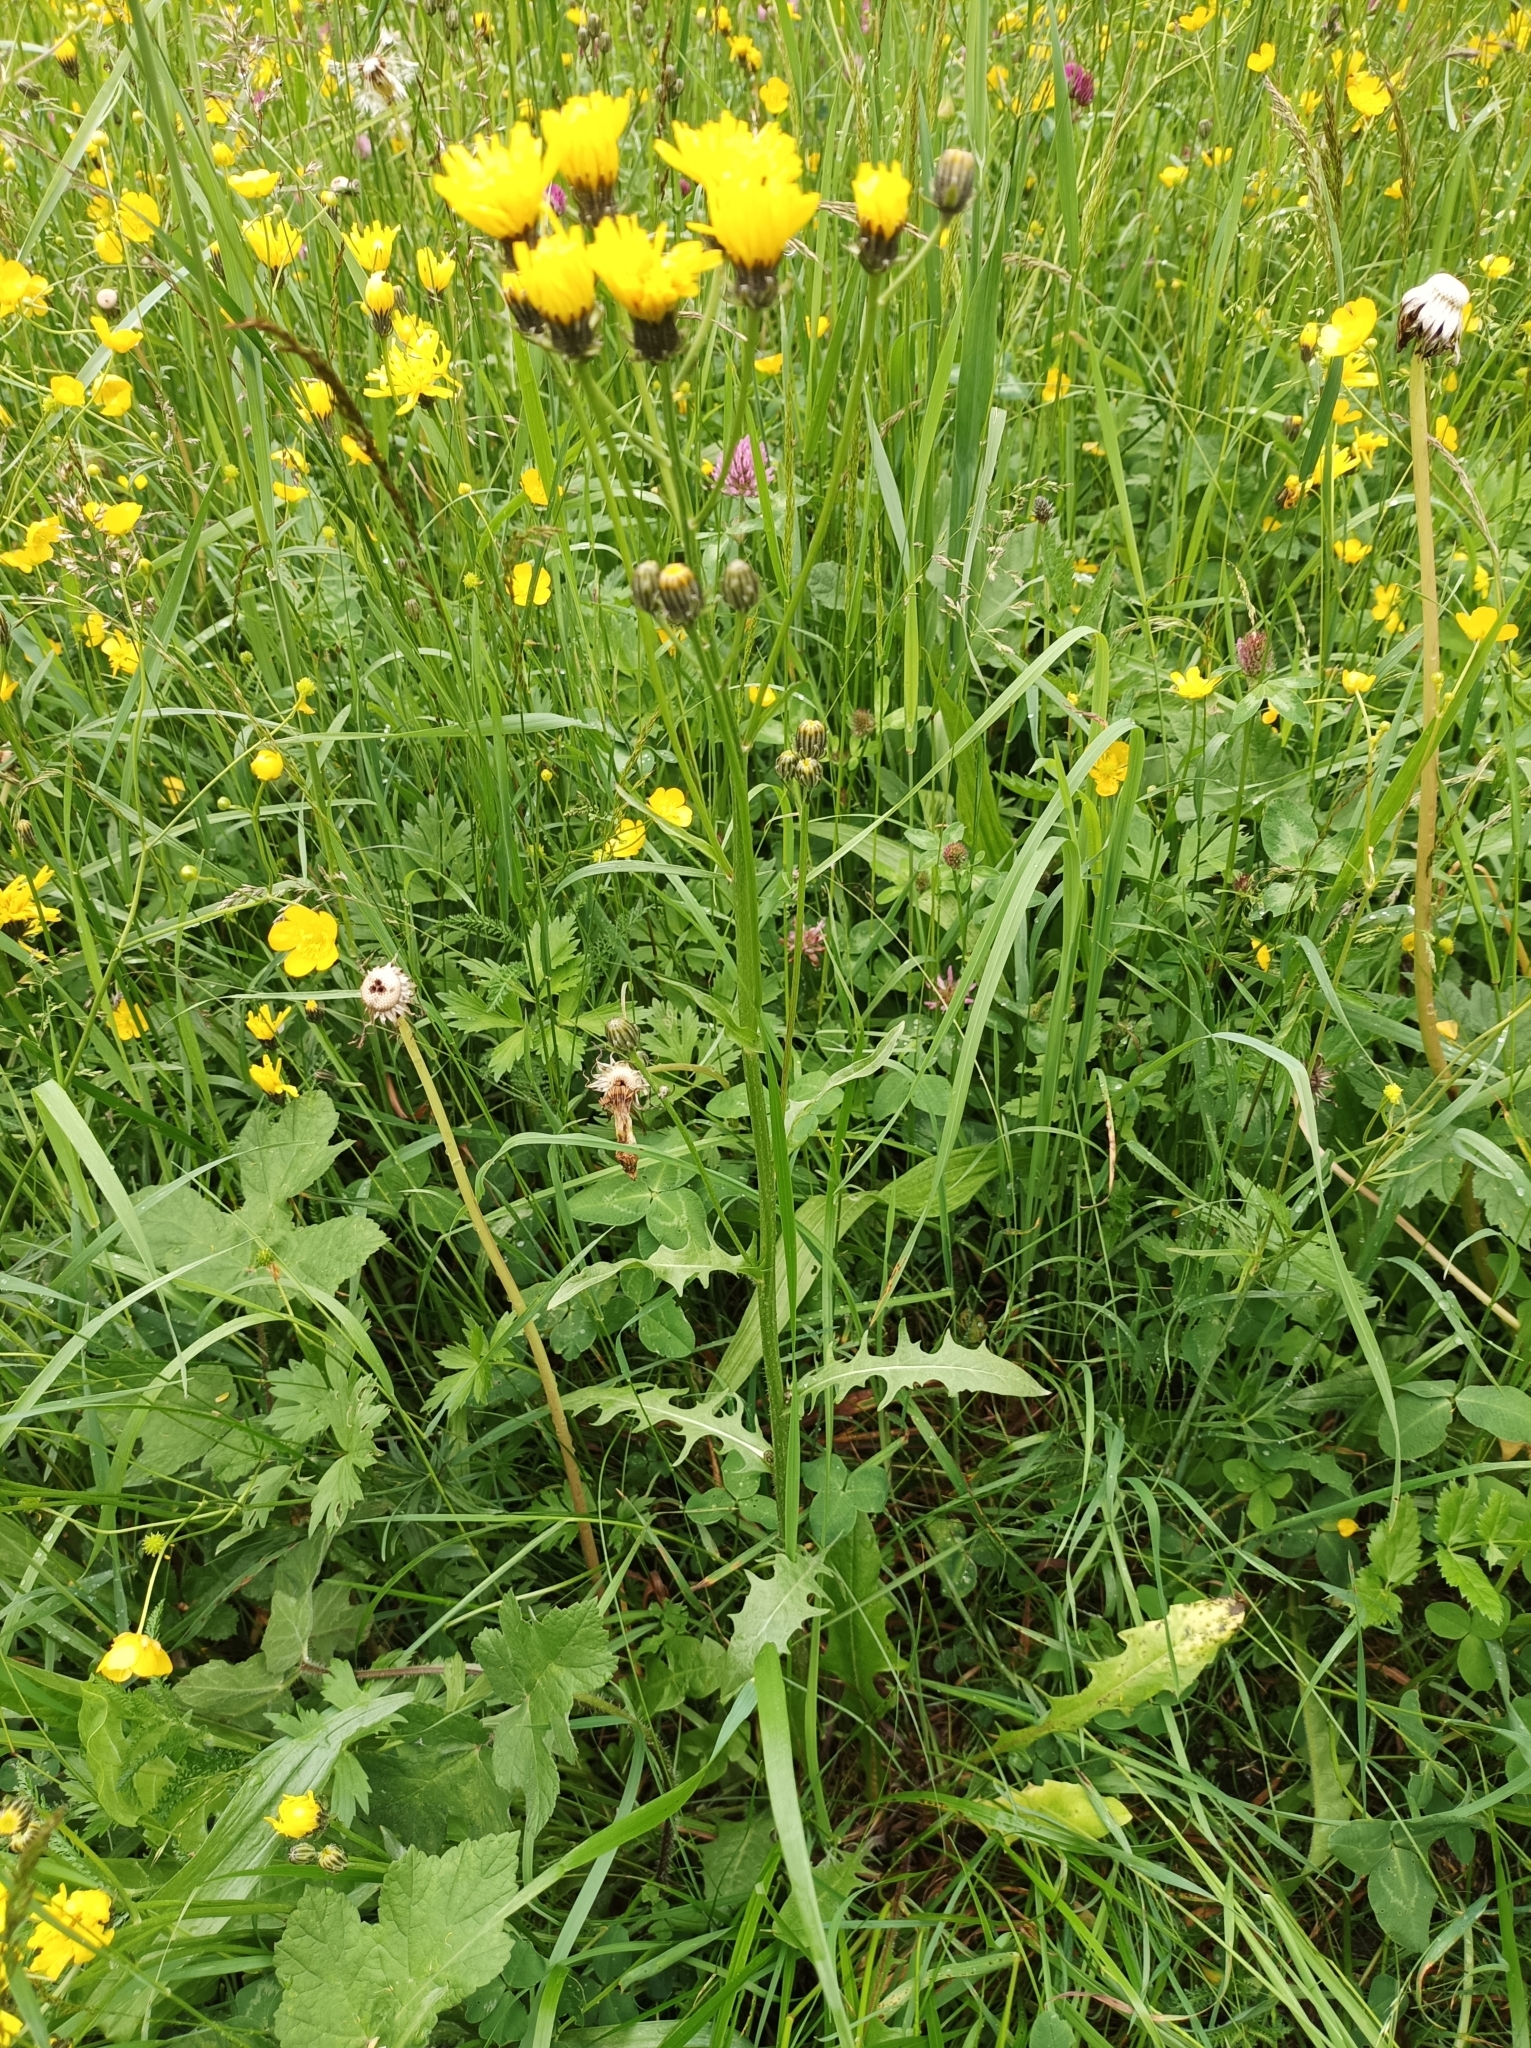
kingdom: Plantae
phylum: Tracheophyta
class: Magnoliopsida
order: Asterales
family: Asteraceae
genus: Crepis
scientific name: Crepis biennis
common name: Rough hawk's-beard
